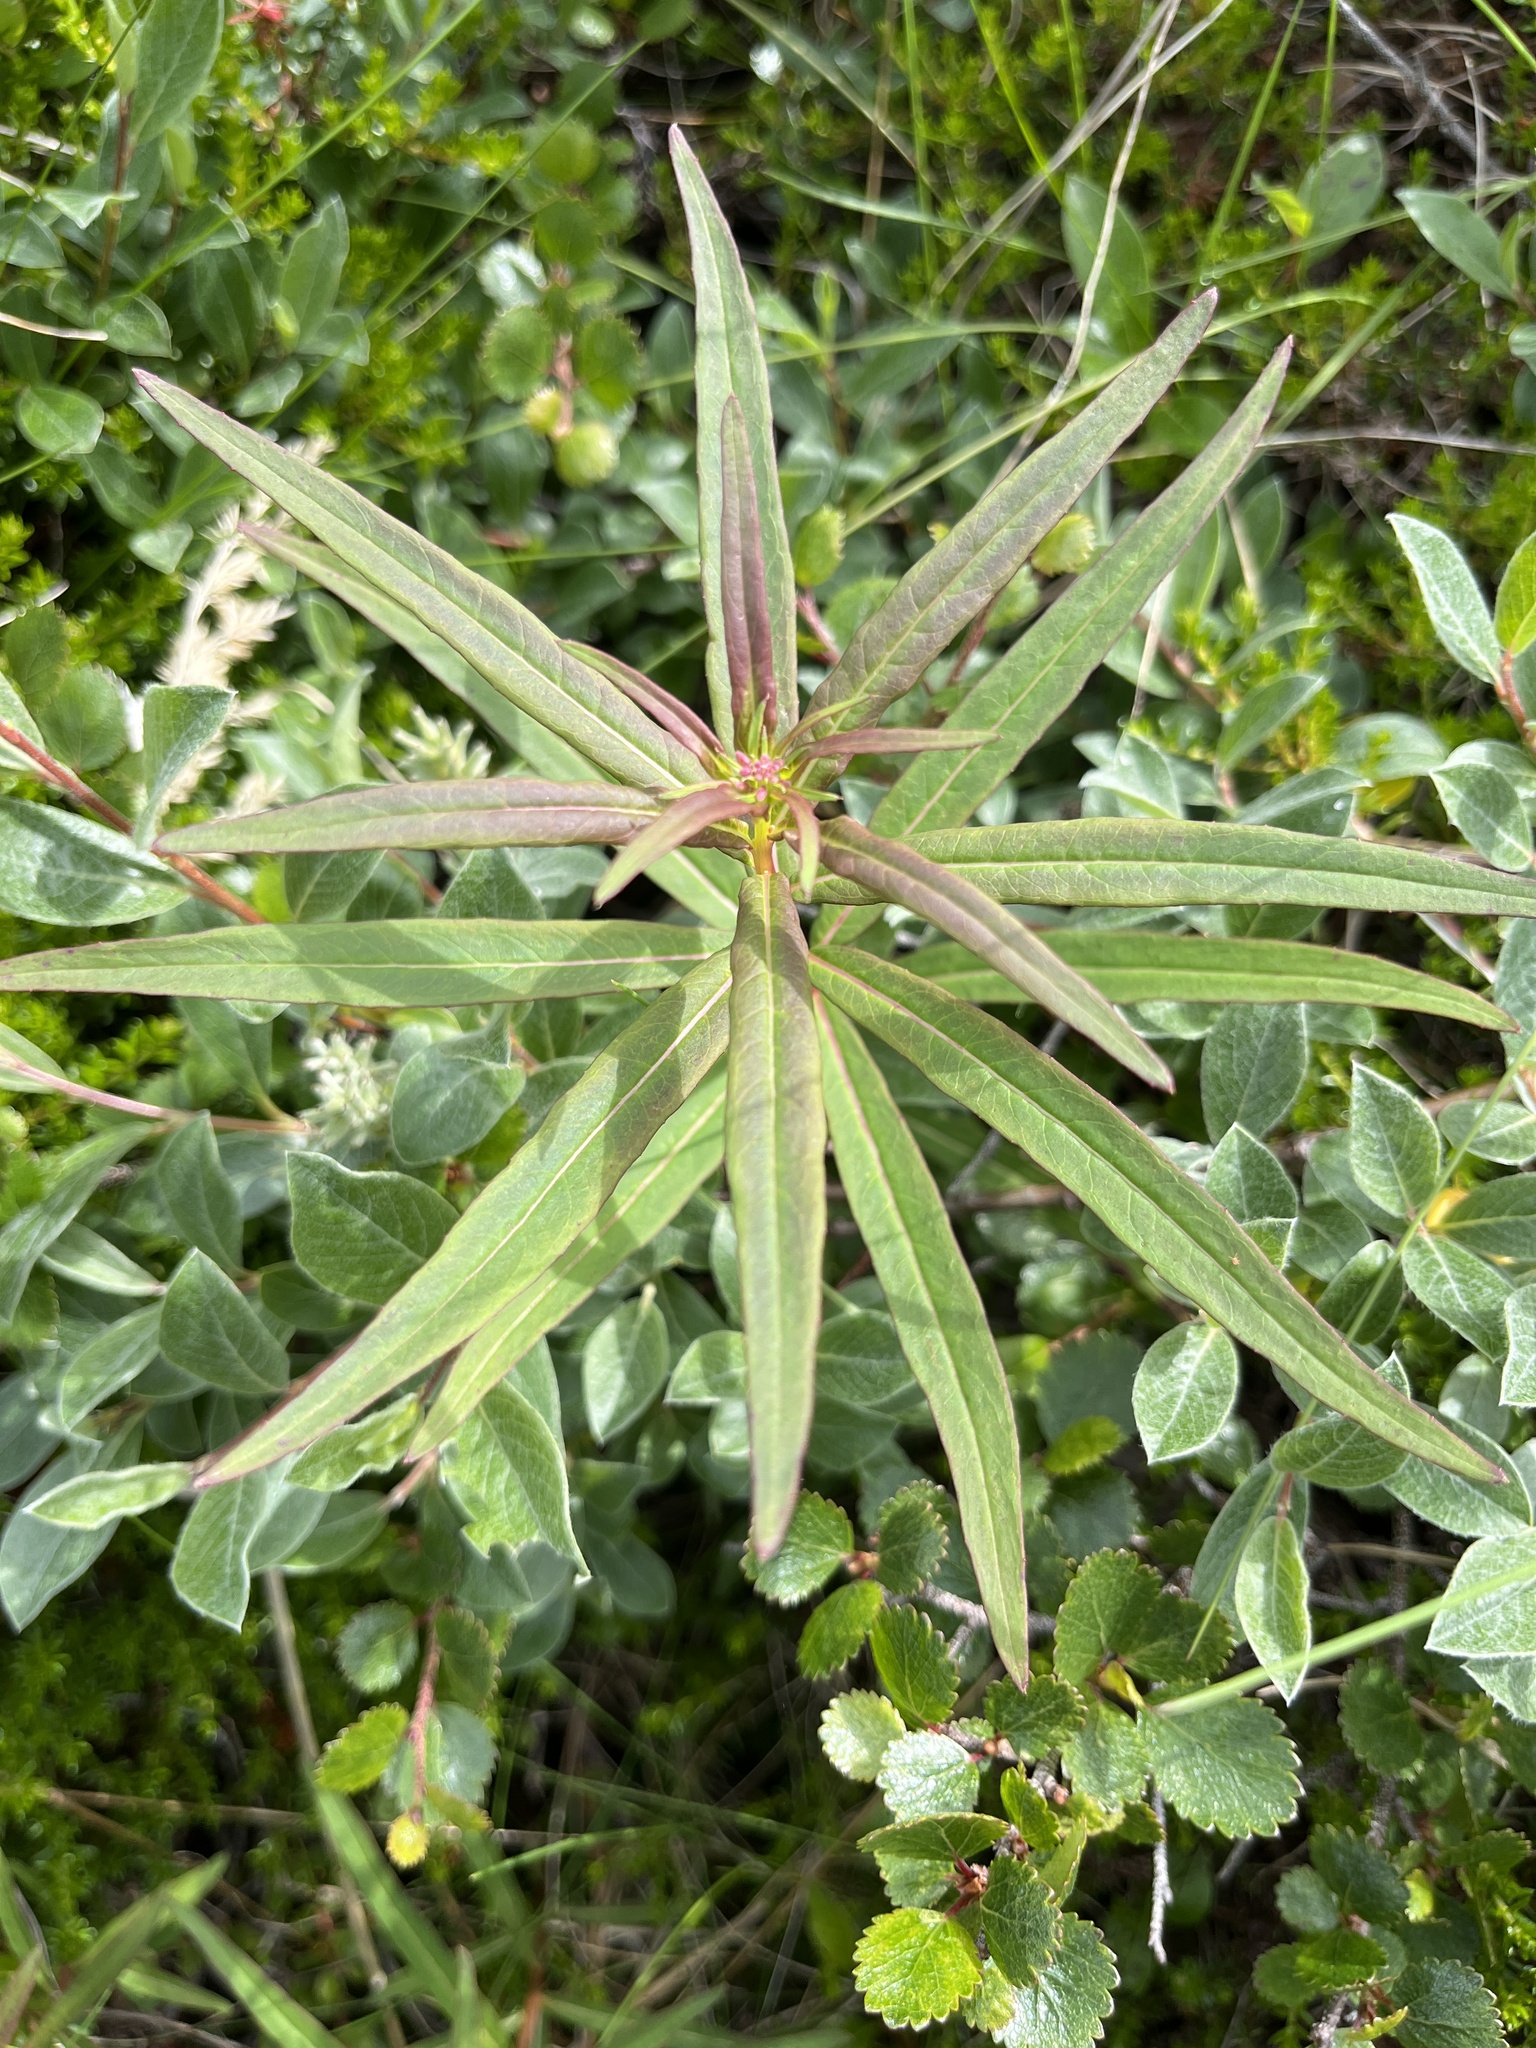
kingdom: Plantae
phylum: Tracheophyta
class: Magnoliopsida
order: Myrtales
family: Onagraceae
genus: Chamaenerion
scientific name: Chamaenerion angustifolium
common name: Fireweed
